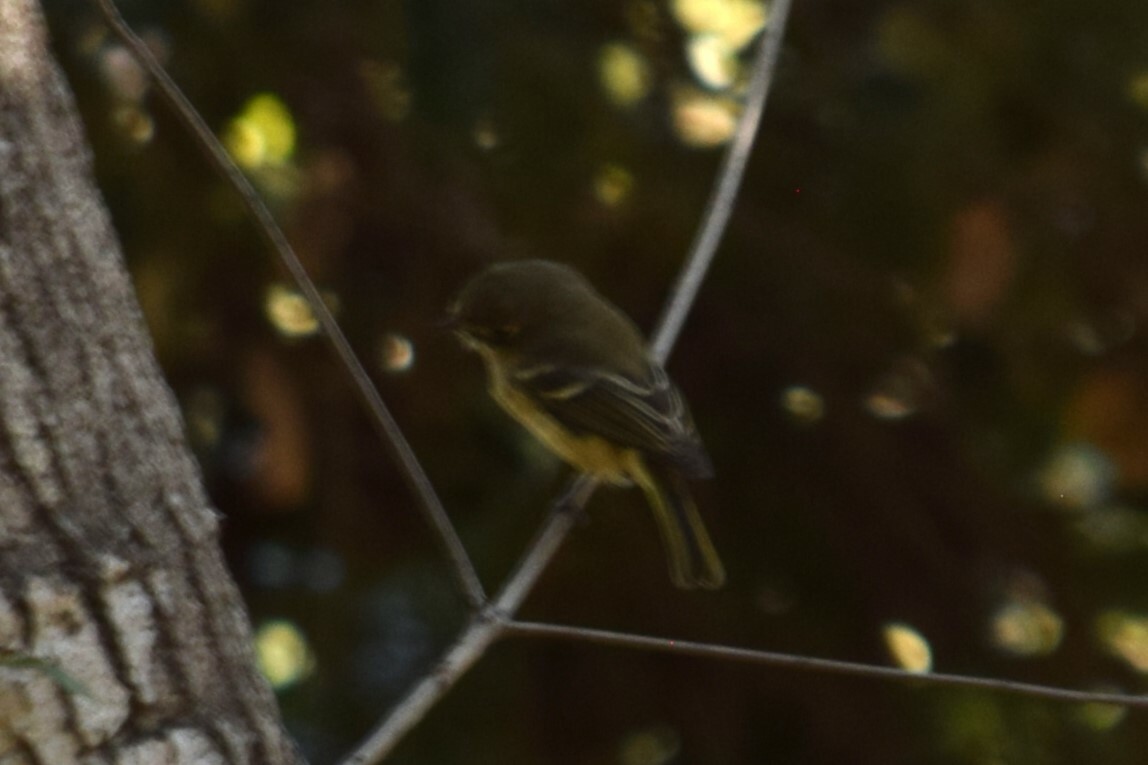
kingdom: Animalia
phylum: Chordata
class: Aves
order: Passeriformes
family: Vireonidae
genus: Vireo
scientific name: Vireo huttoni
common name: Hutton's vireo
